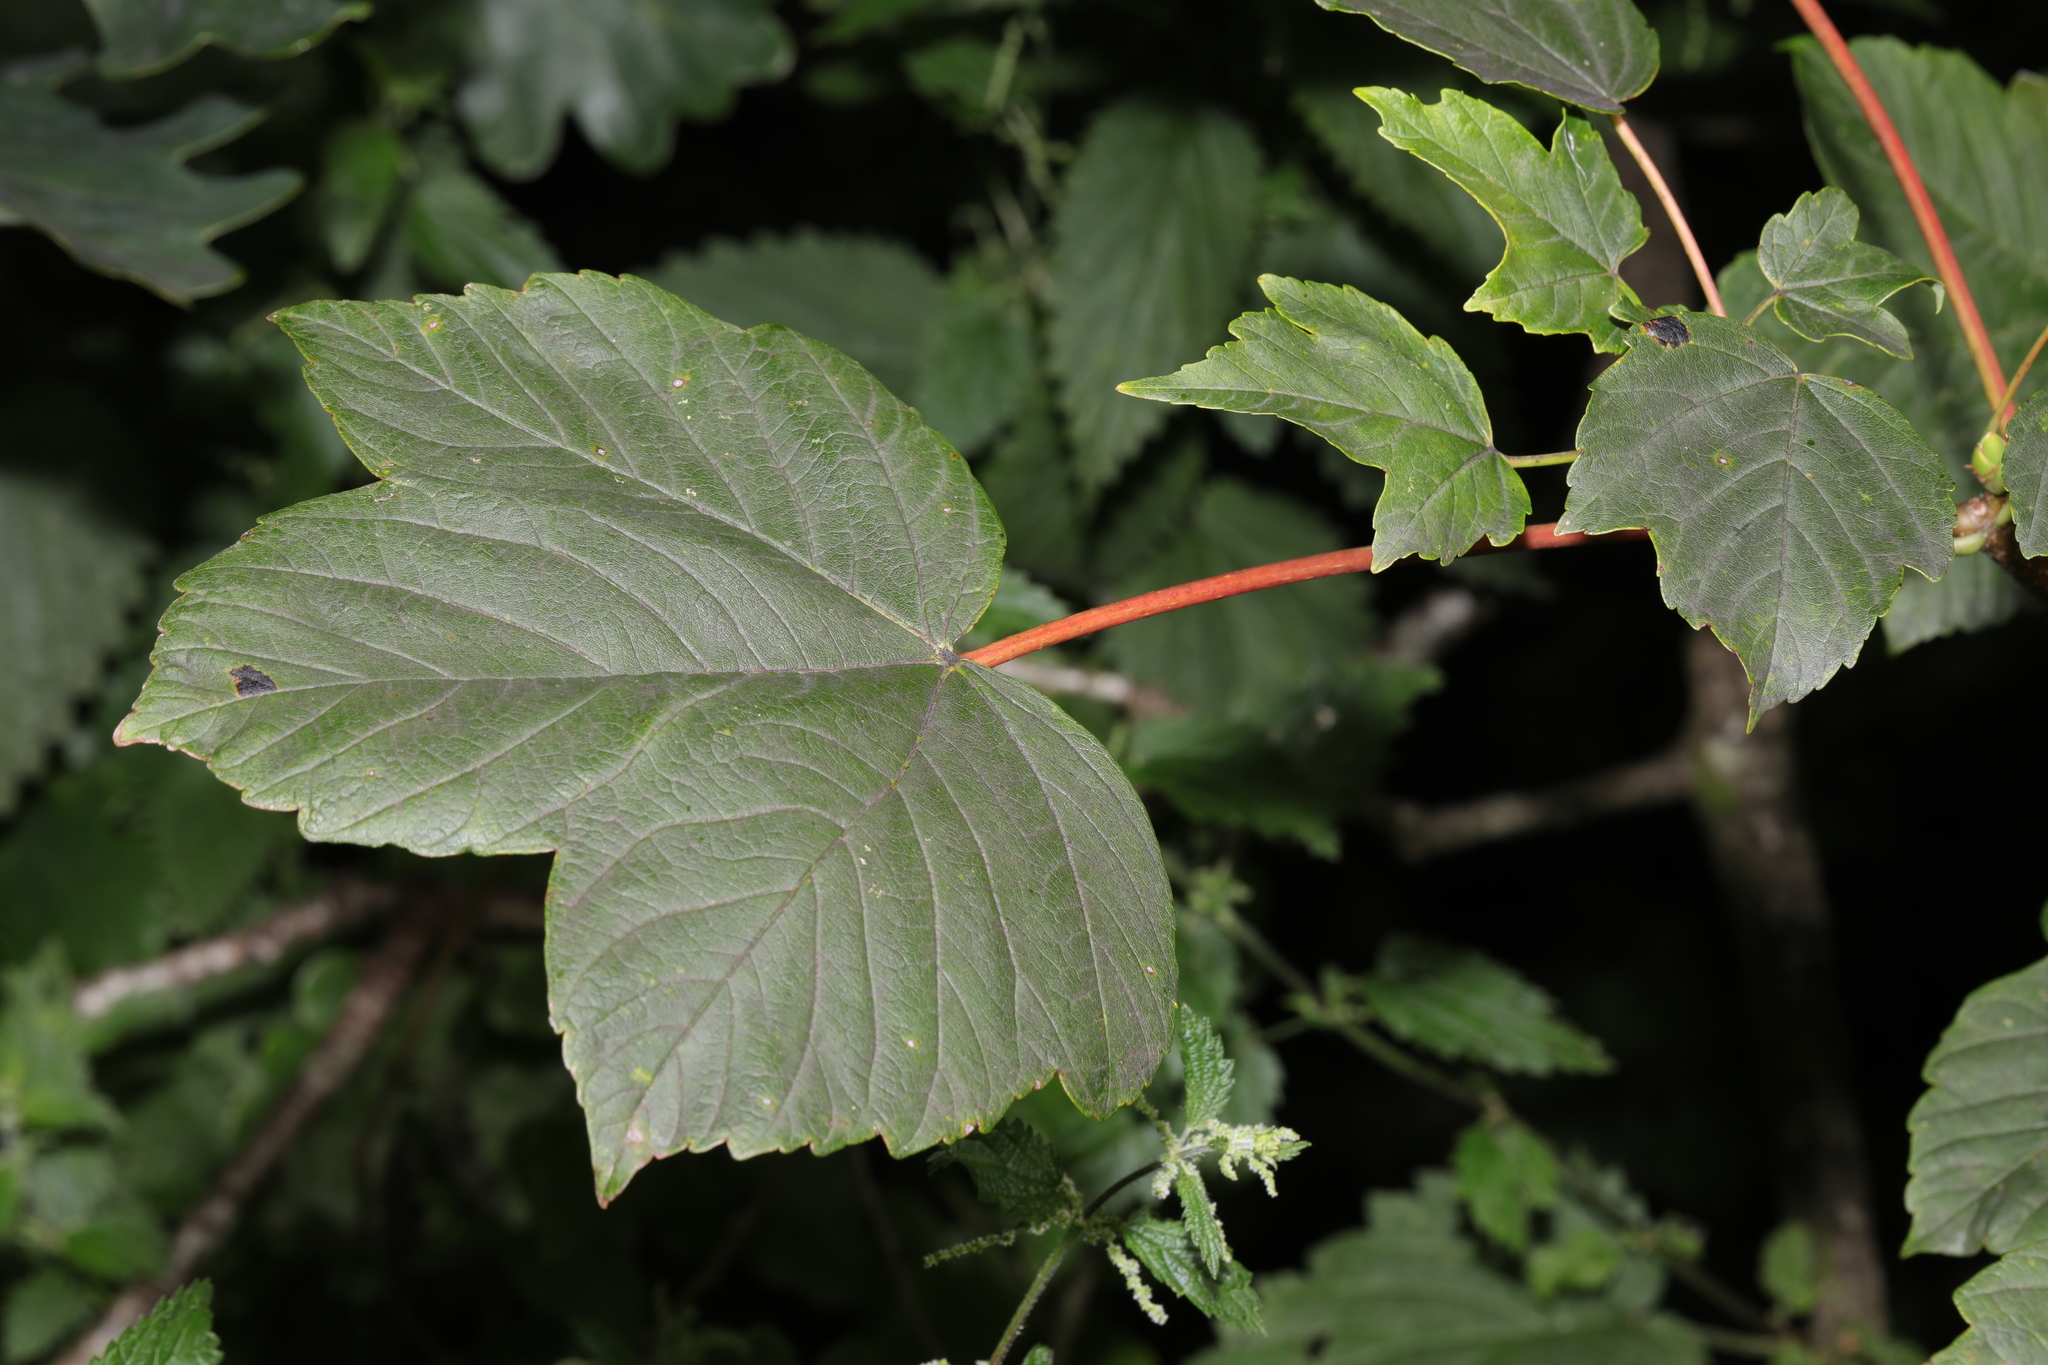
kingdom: Plantae
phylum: Tracheophyta
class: Magnoliopsida
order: Sapindales
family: Sapindaceae
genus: Acer
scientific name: Acer pseudoplatanus
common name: Sycamore
